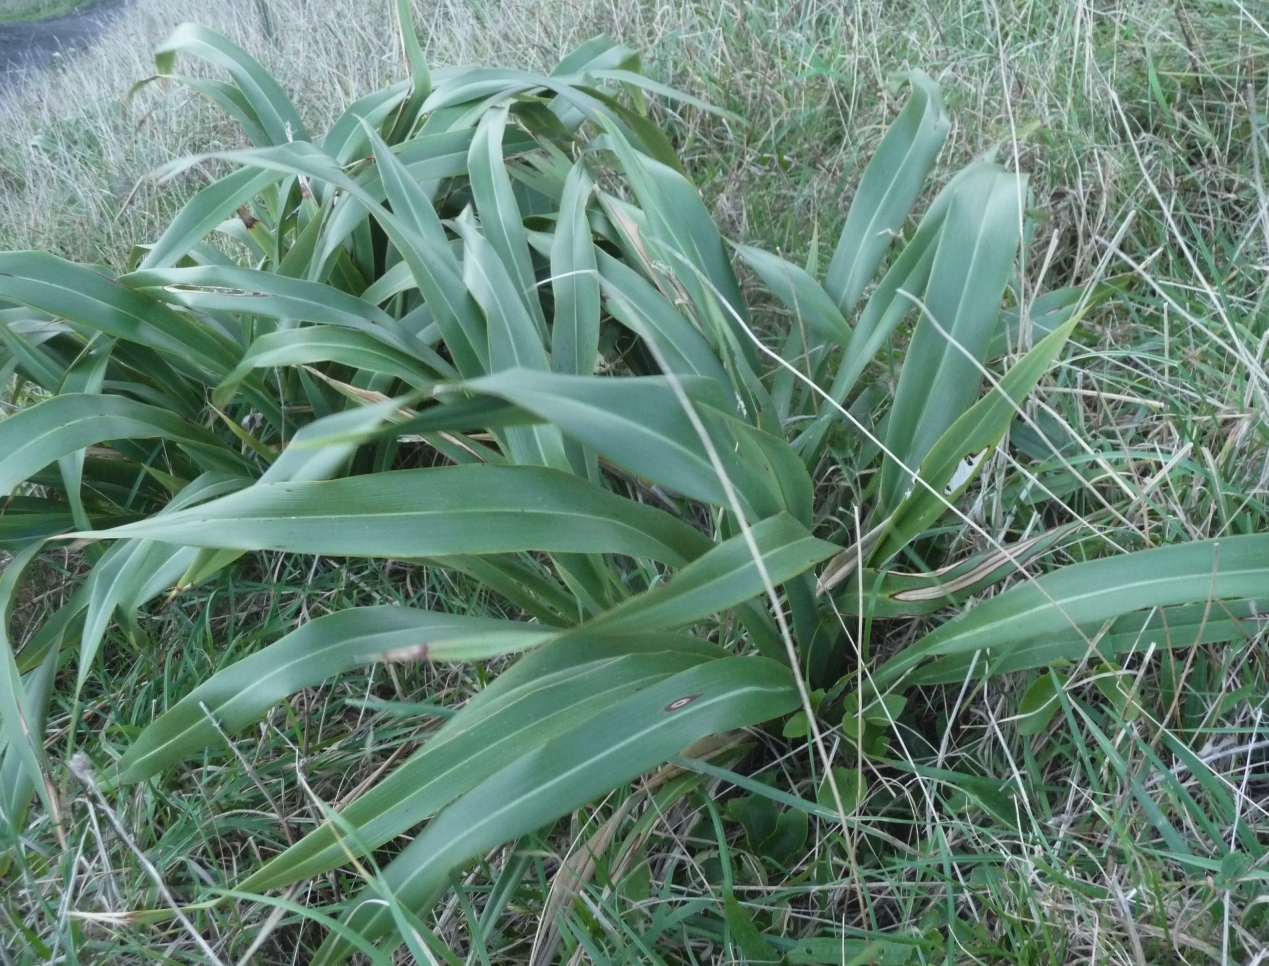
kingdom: Plantae
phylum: Tracheophyta
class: Liliopsida
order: Asparagales
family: Asphodelaceae
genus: Phormium
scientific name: Phormium colensoi
